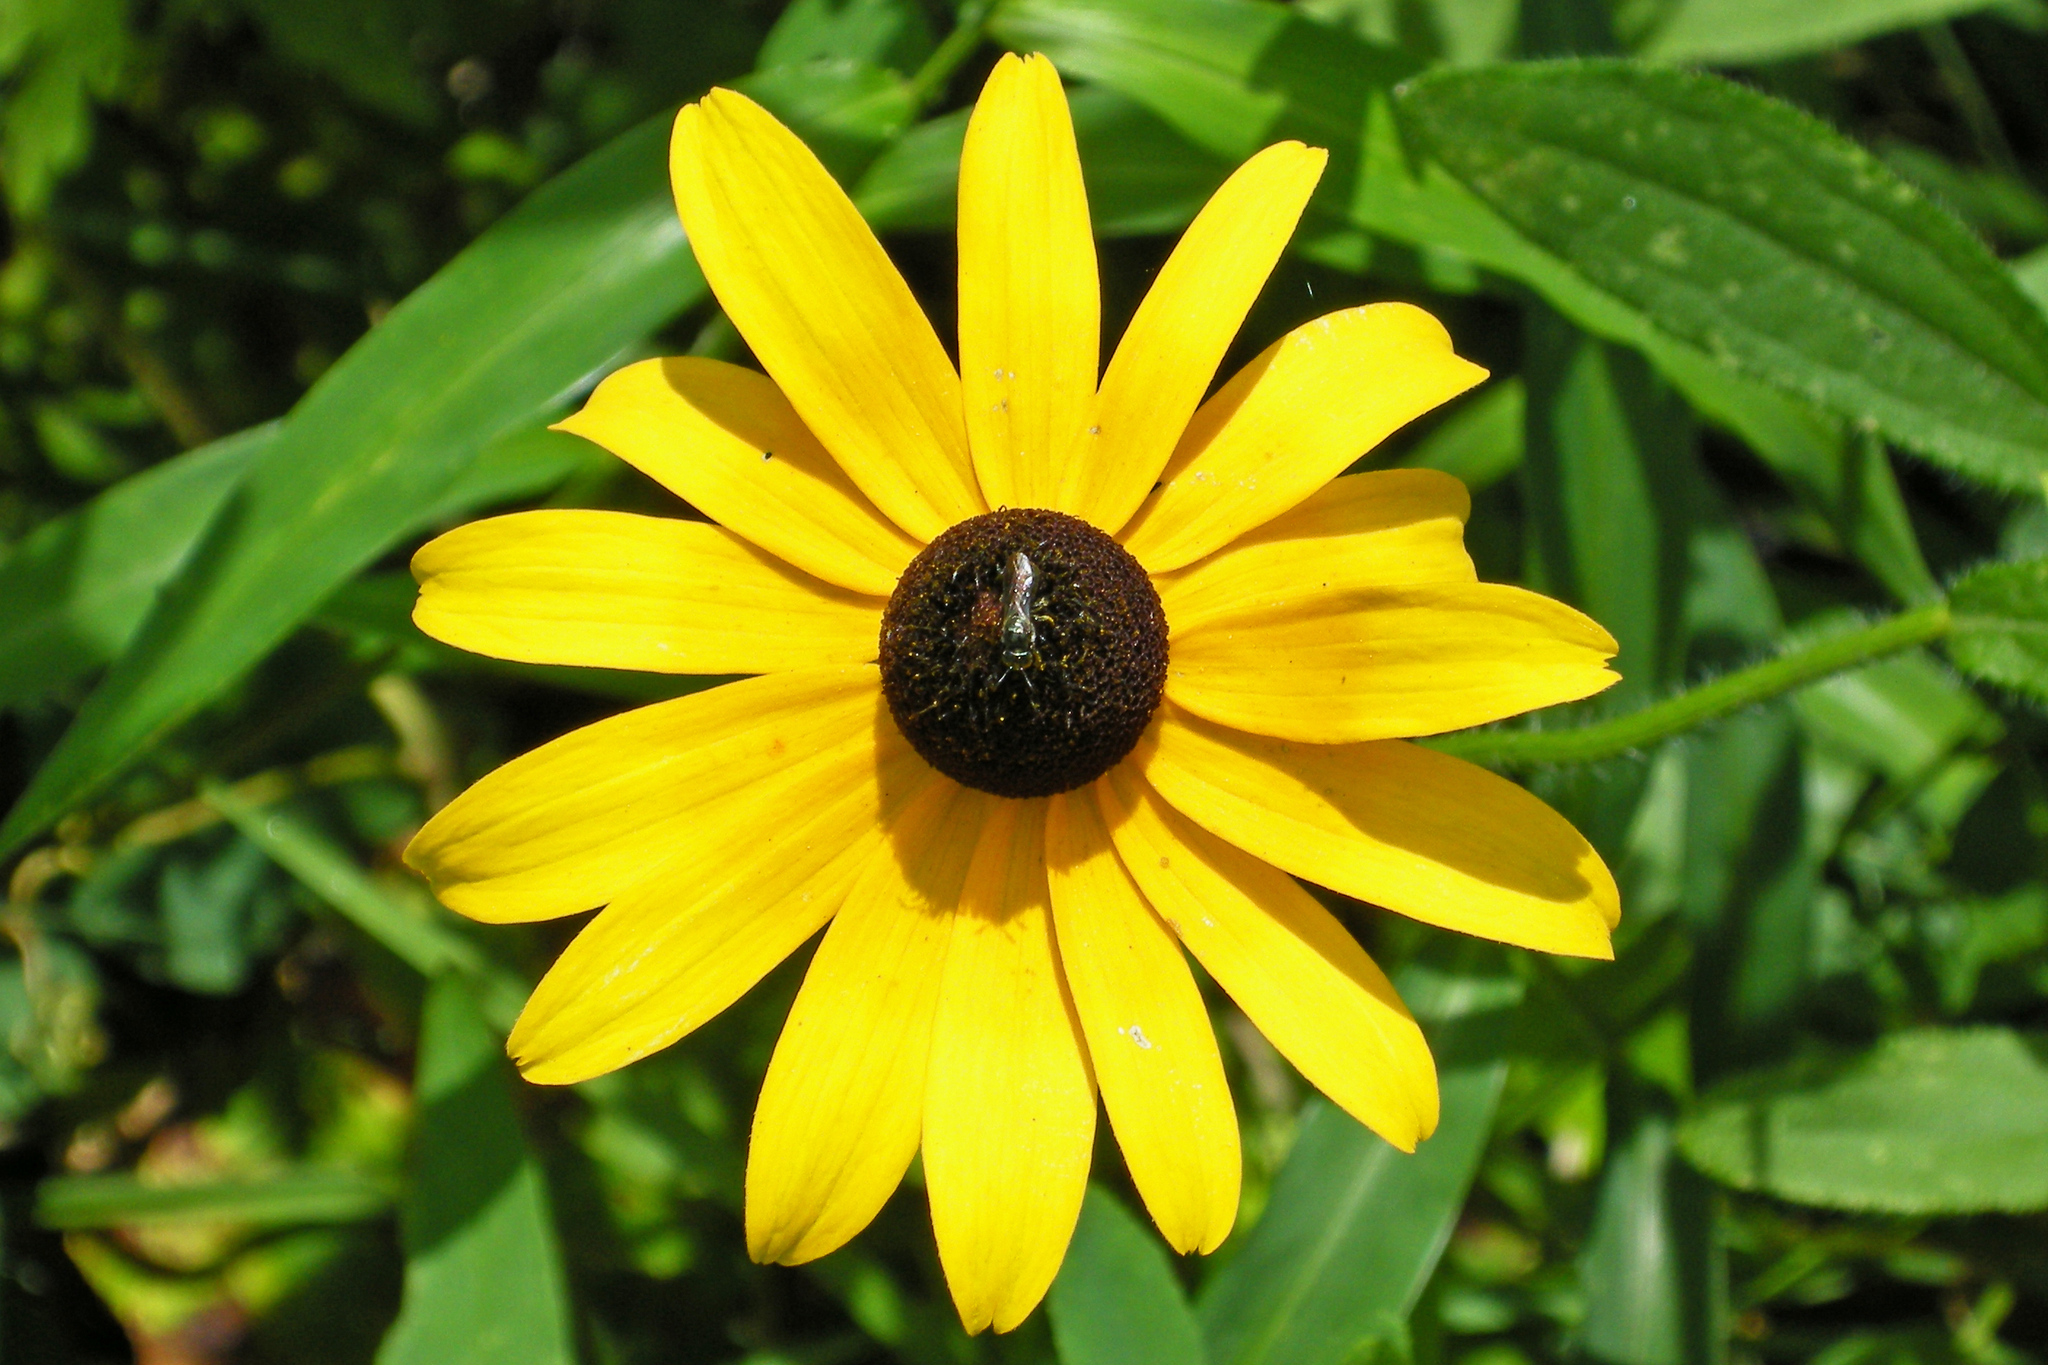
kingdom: Plantae
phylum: Tracheophyta
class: Magnoliopsida
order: Asterales
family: Asteraceae
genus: Rudbeckia
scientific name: Rudbeckia hirta
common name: Black-eyed-susan
